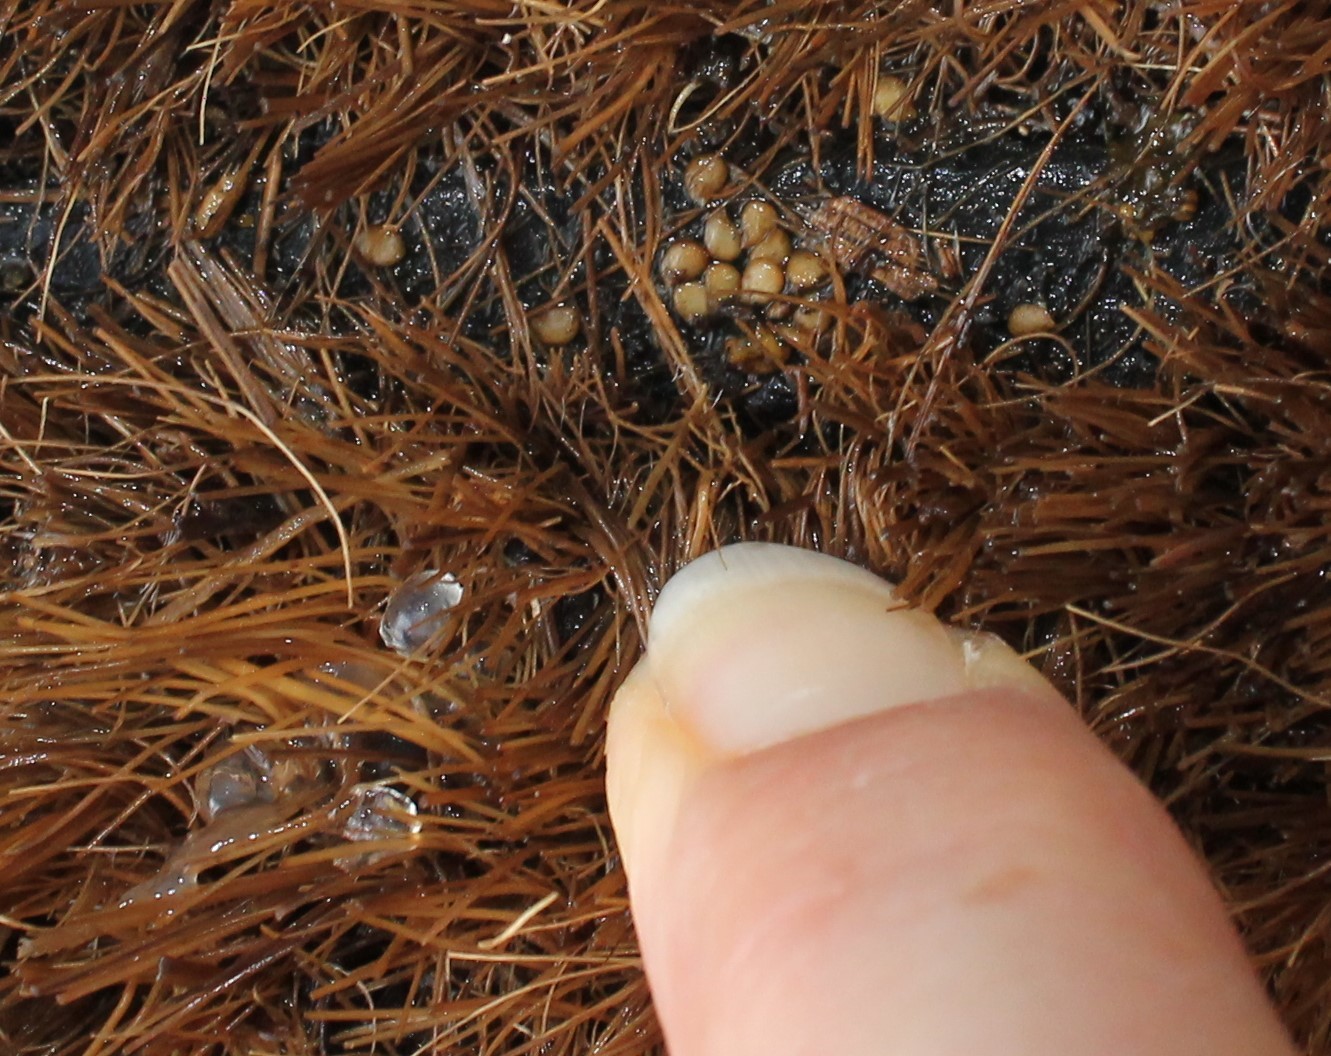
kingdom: Animalia
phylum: Mollusca
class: Gastropoda
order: Stylommatophora
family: Limacidae
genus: Ambigolimax
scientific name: Ambigolimax
